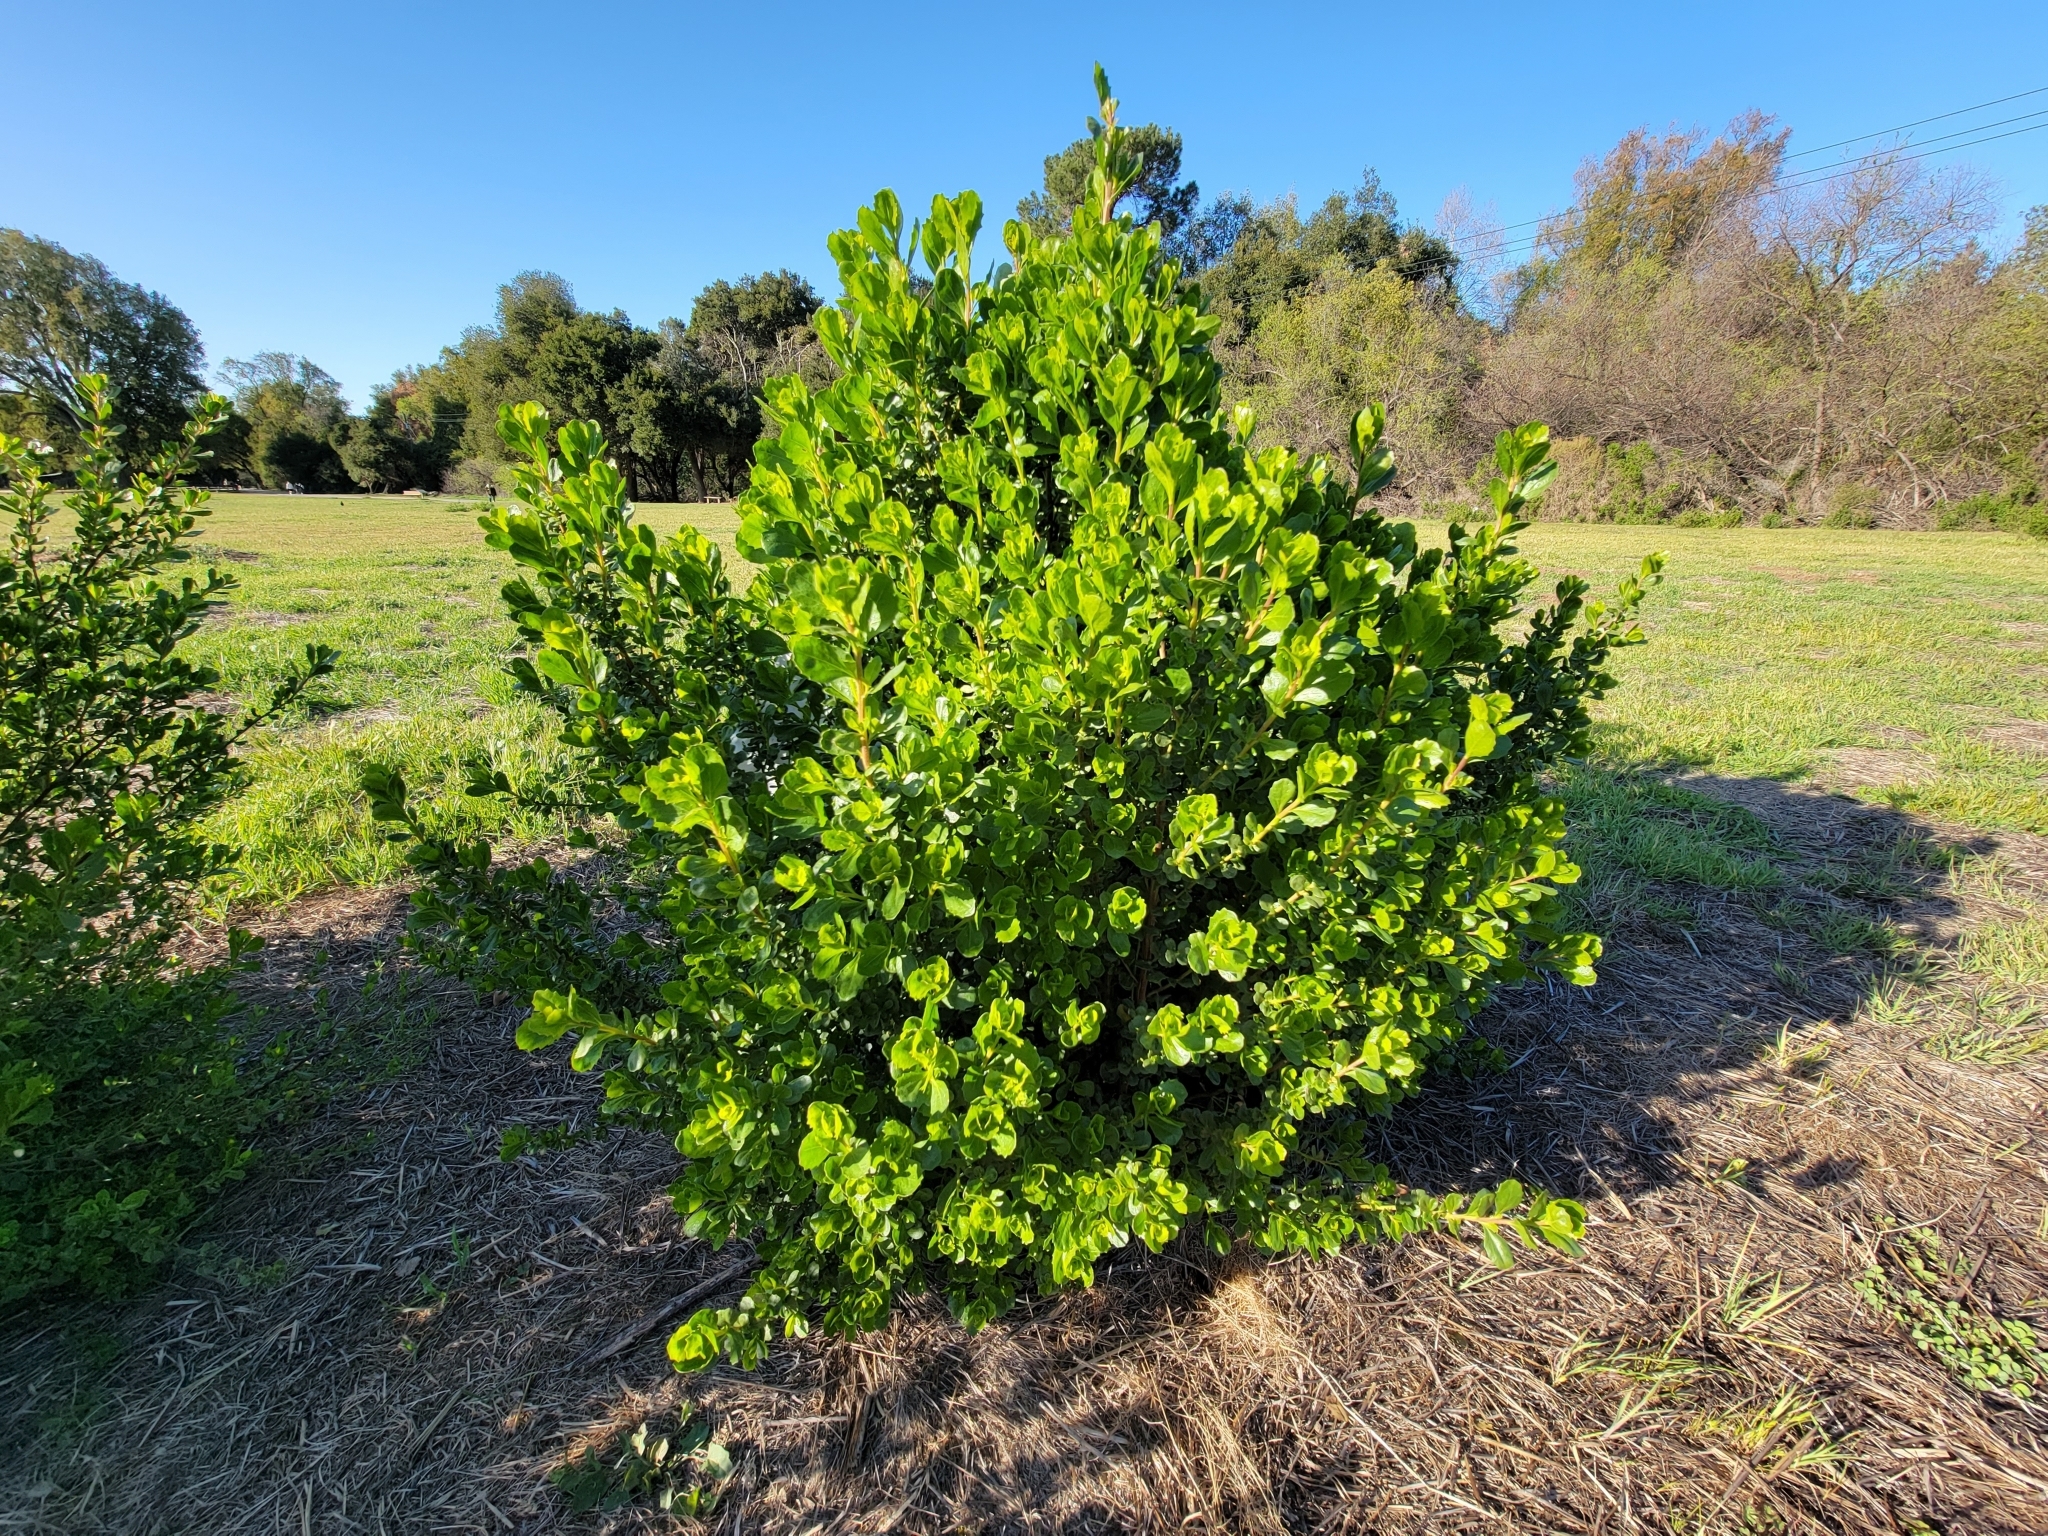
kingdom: Plantae
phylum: Tracheophyta
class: Magnoliopsida
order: Asterales
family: Asteraceae
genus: Baccharis
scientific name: Baccharis pilularis
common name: Coyotebrush
